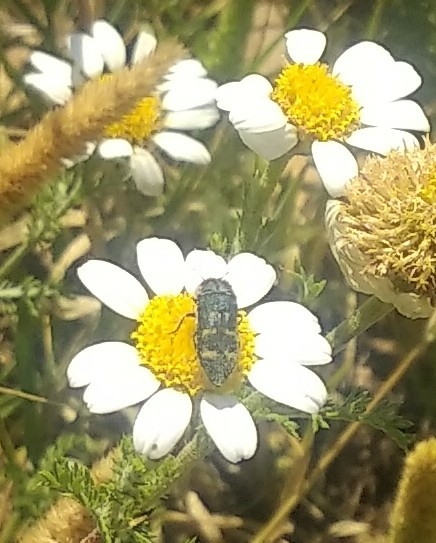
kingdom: Animalia
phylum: Arthropoda
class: Insecta
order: Coleoptera
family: Buprestidae
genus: Acmaeoderella
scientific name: Acmaeoderella flavofasciata
